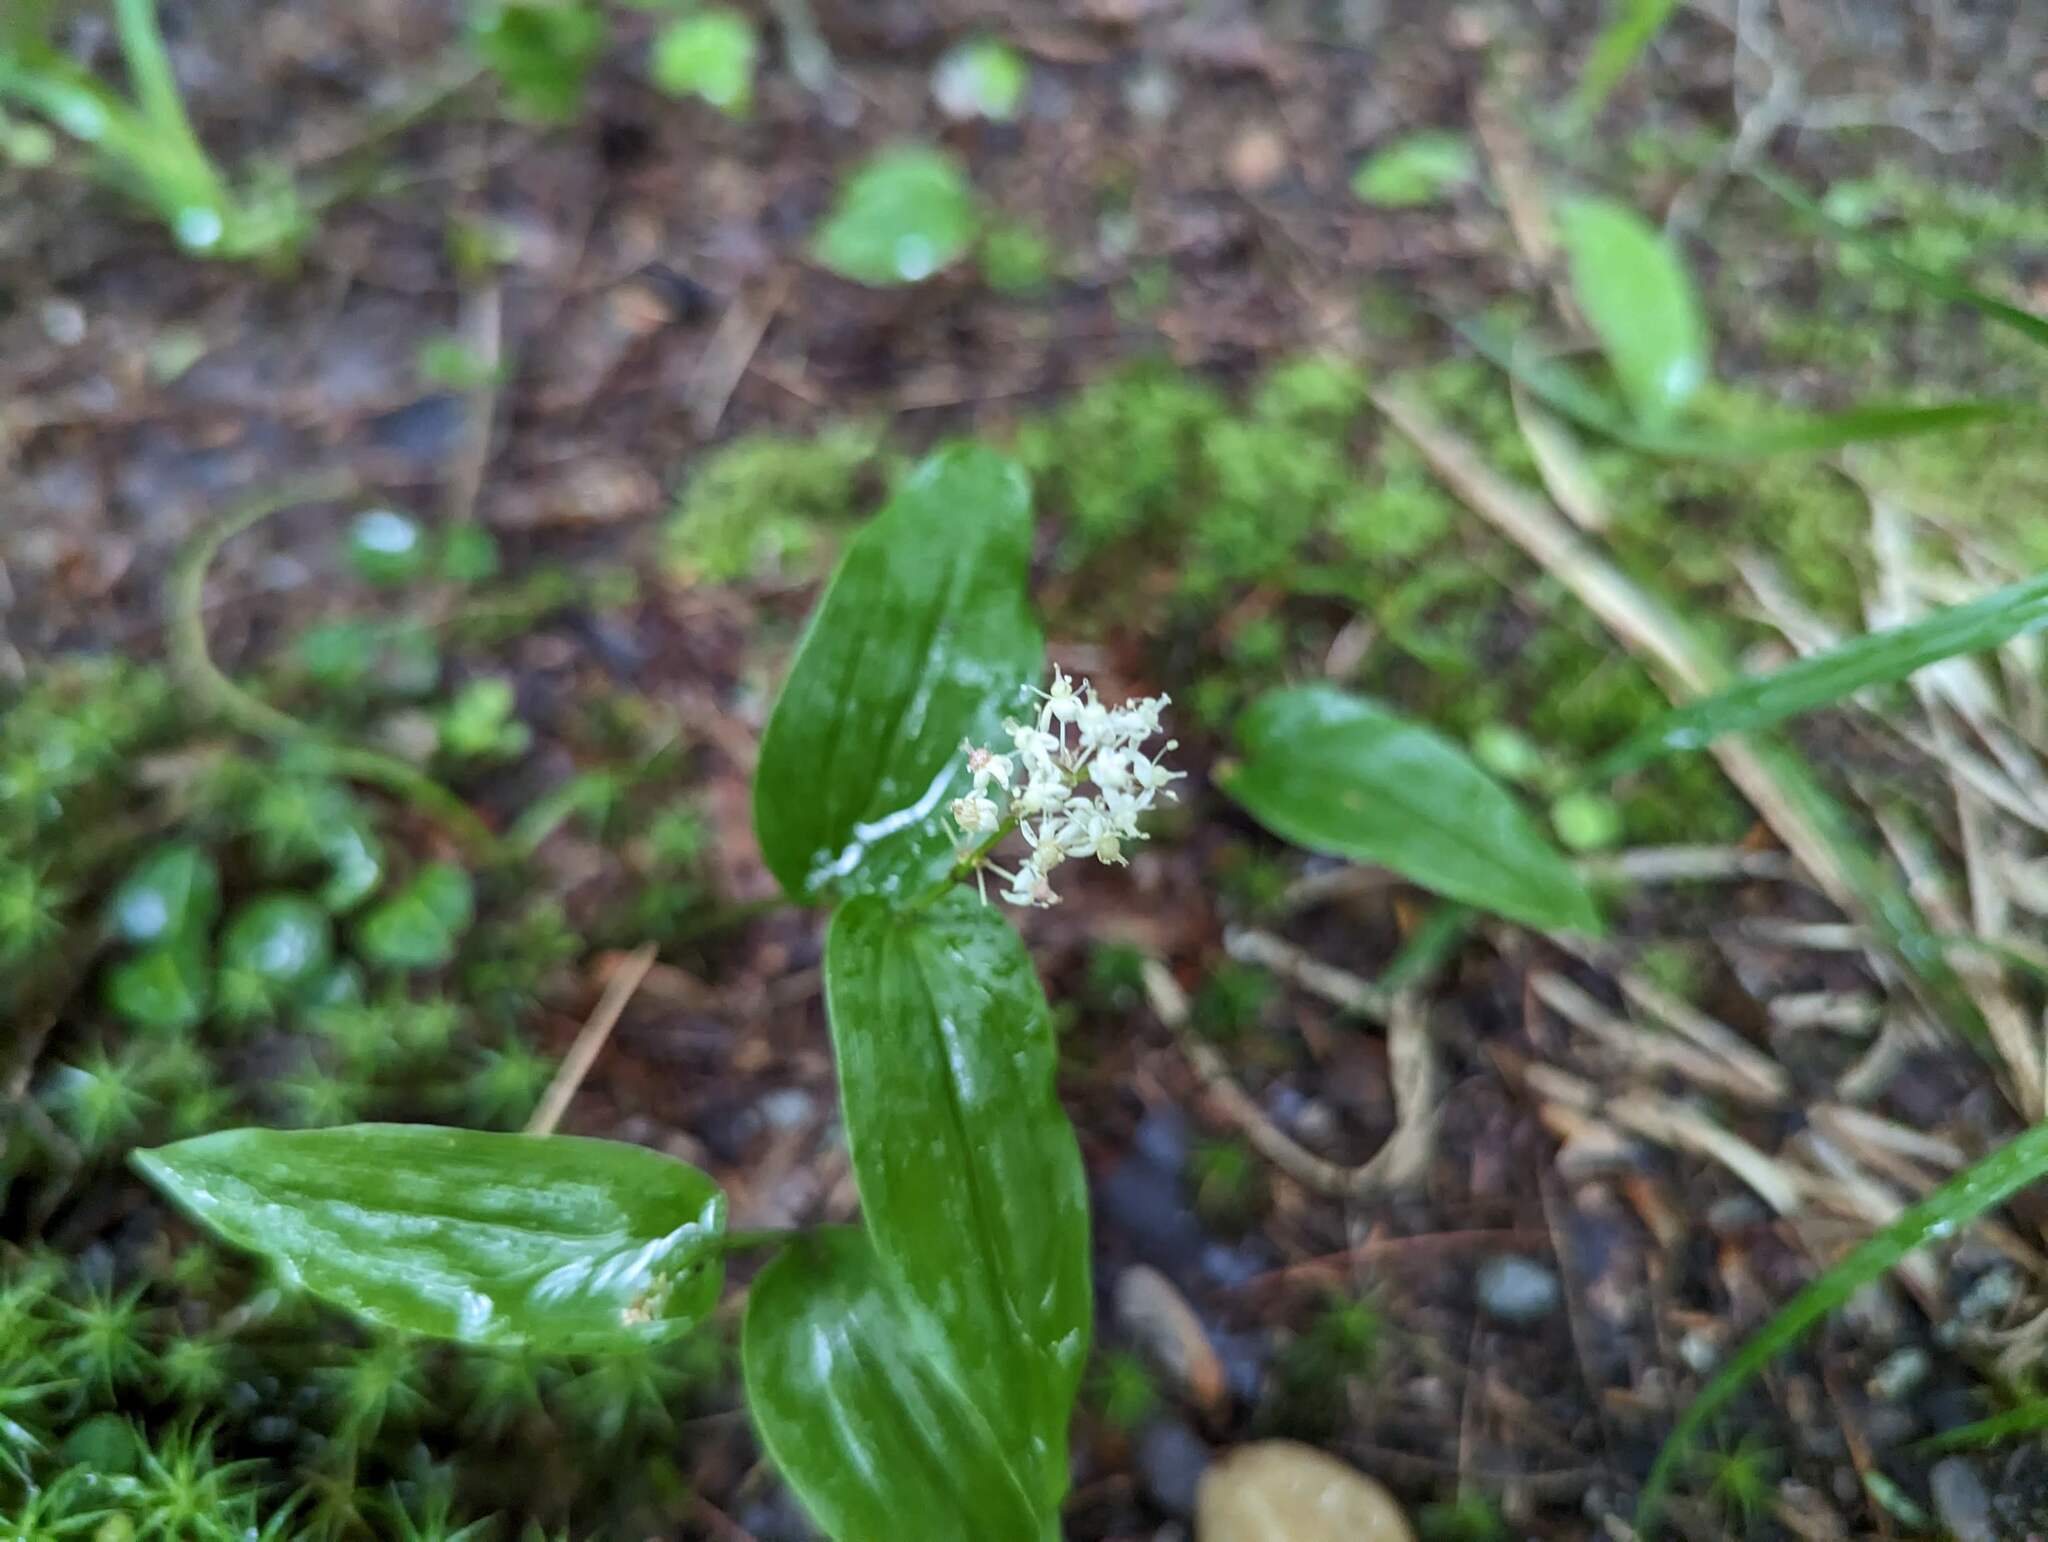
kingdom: Plantae
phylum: Tracheophyta
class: Liliopsida
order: Asparagales
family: Asparagaceae
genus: Maianthemum
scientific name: Maianthemum canadense
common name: False lily-of-the-valley
